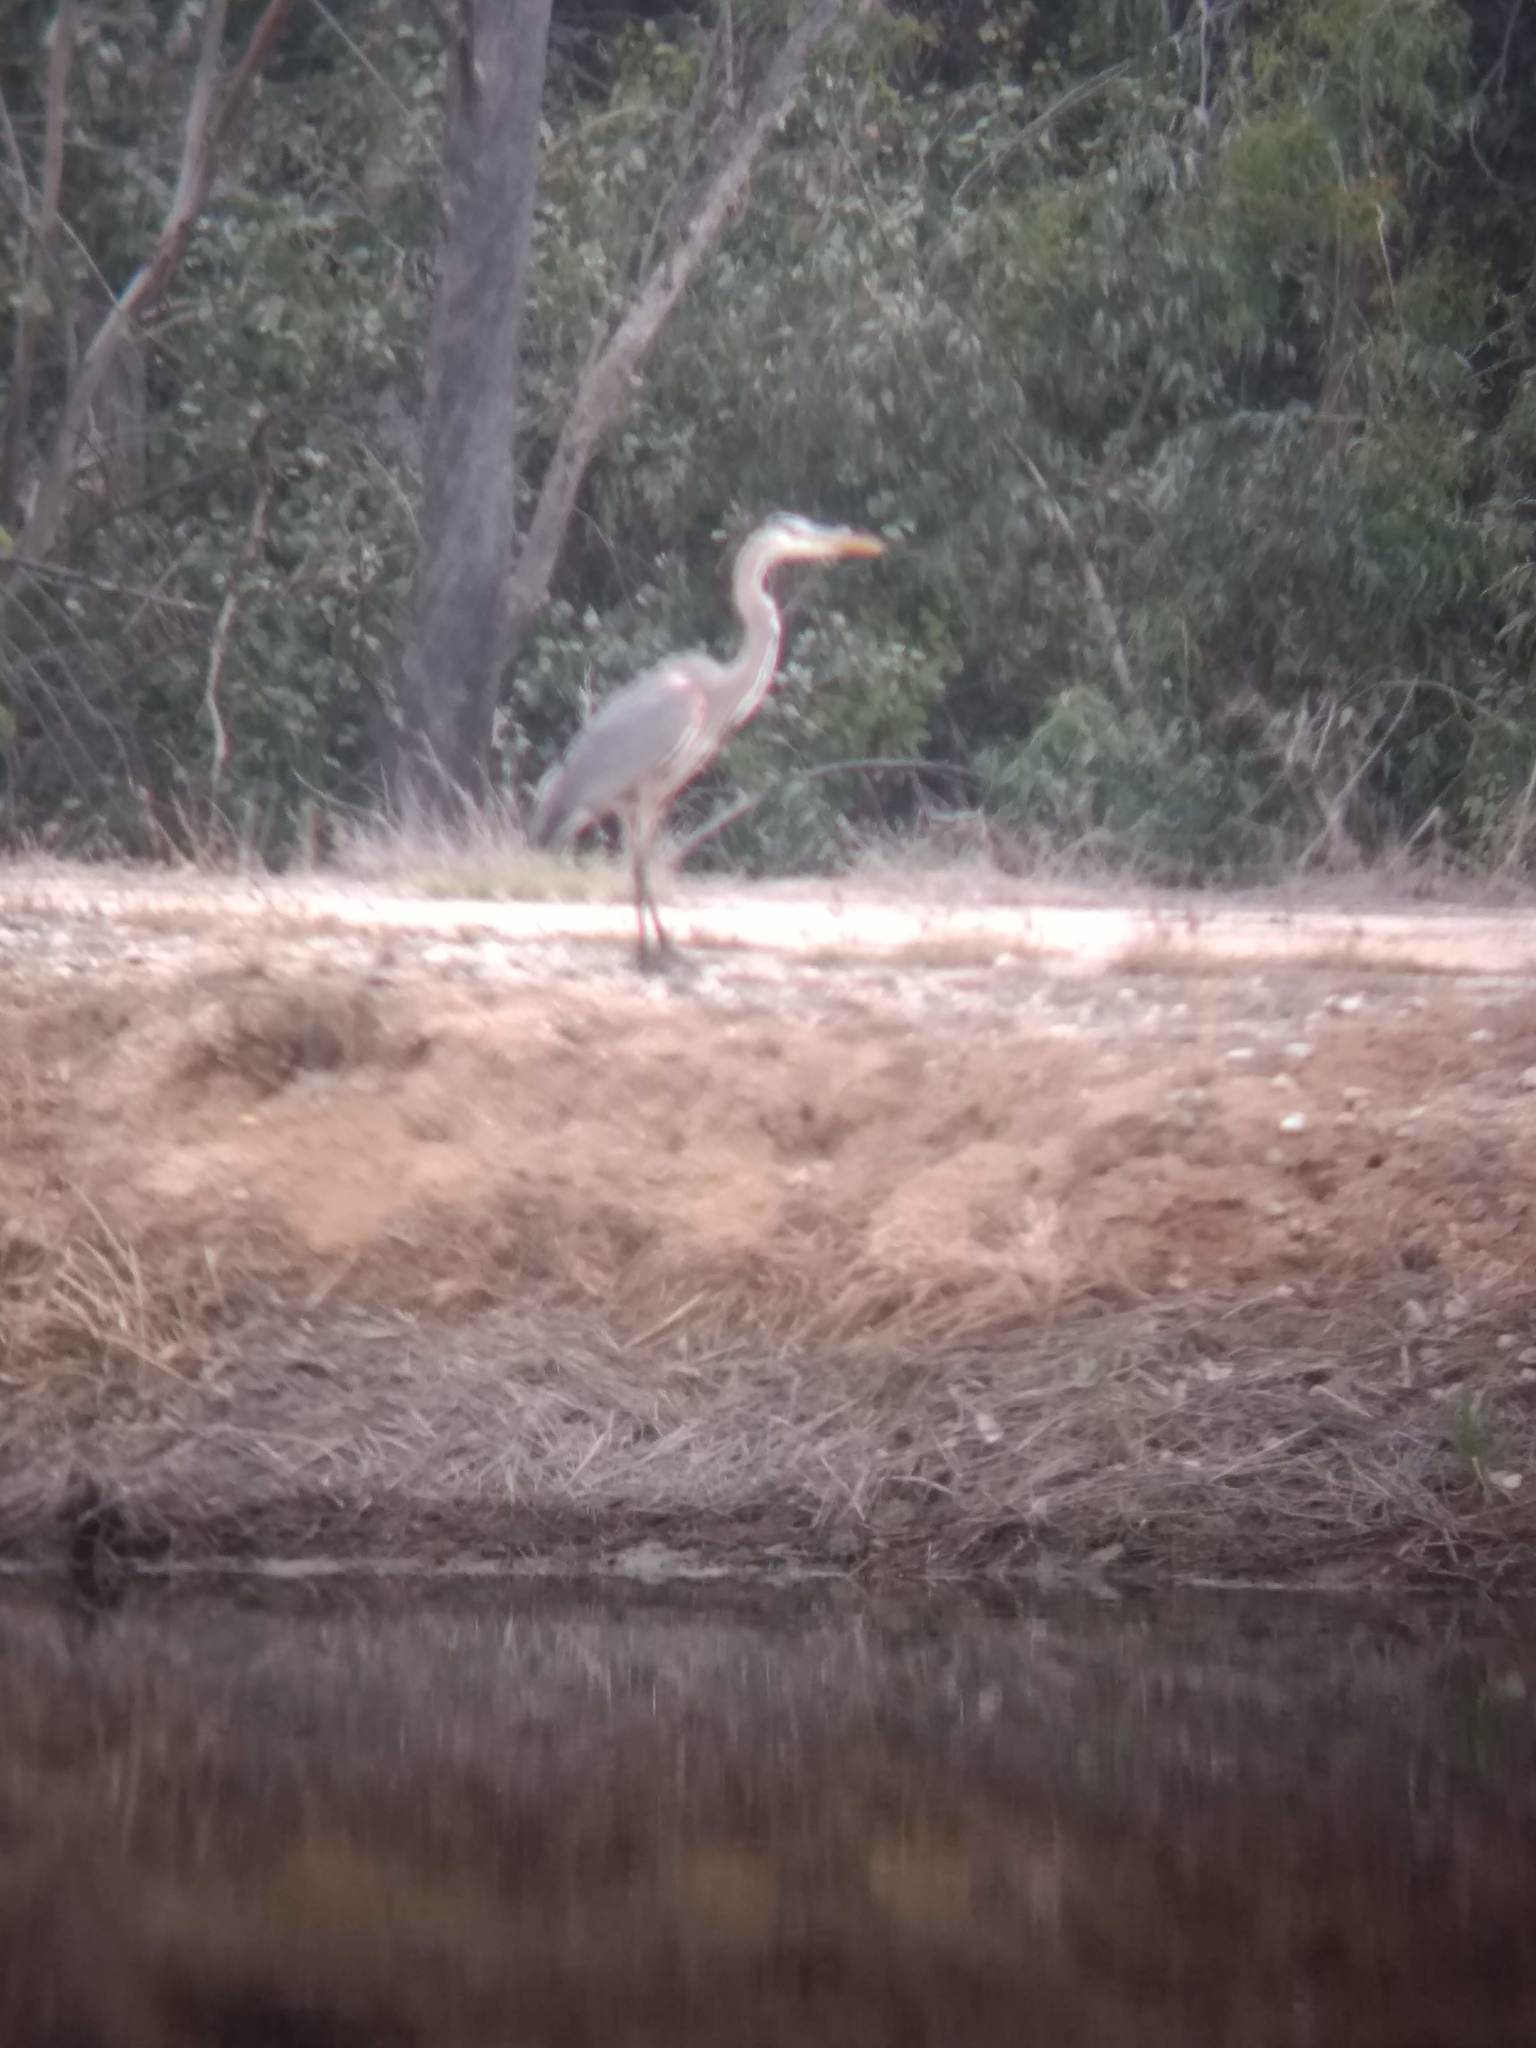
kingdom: Animalia
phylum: Chordata
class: Aves
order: Pelecaniformes
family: Ardeidae
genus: Ardea
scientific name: Ardea herodias
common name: Great blue heron
